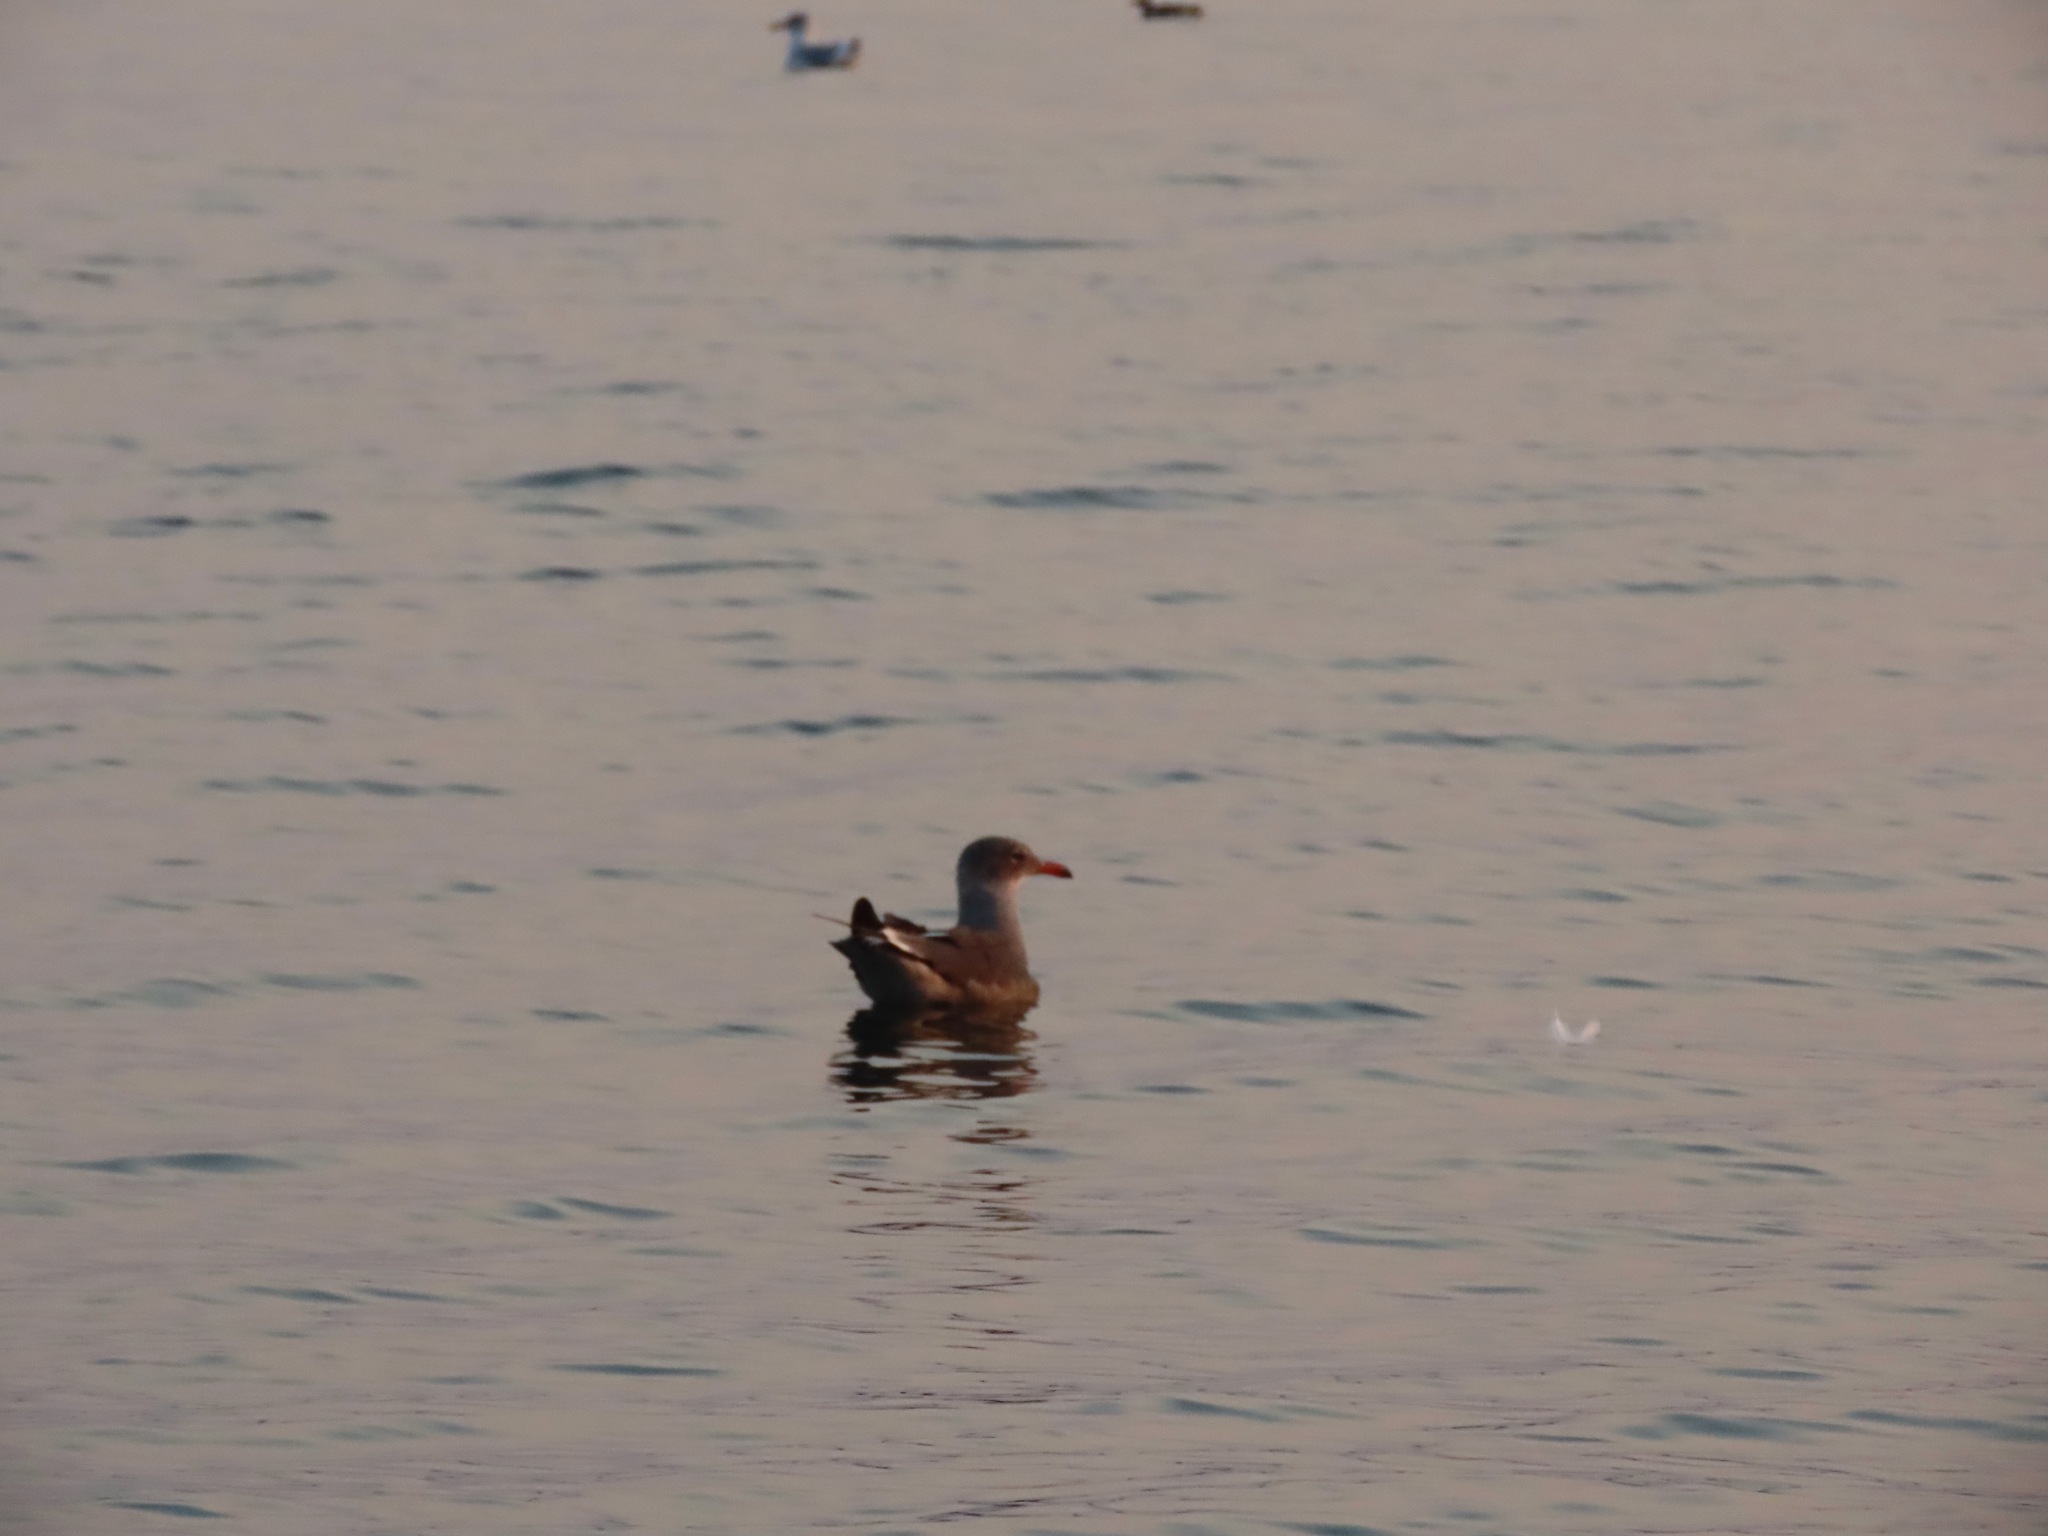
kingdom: Animalia
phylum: Chordata
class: Aves
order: Charadriiformes
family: Laridae
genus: Larus
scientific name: Larus heermanni
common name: Heermann's gull
